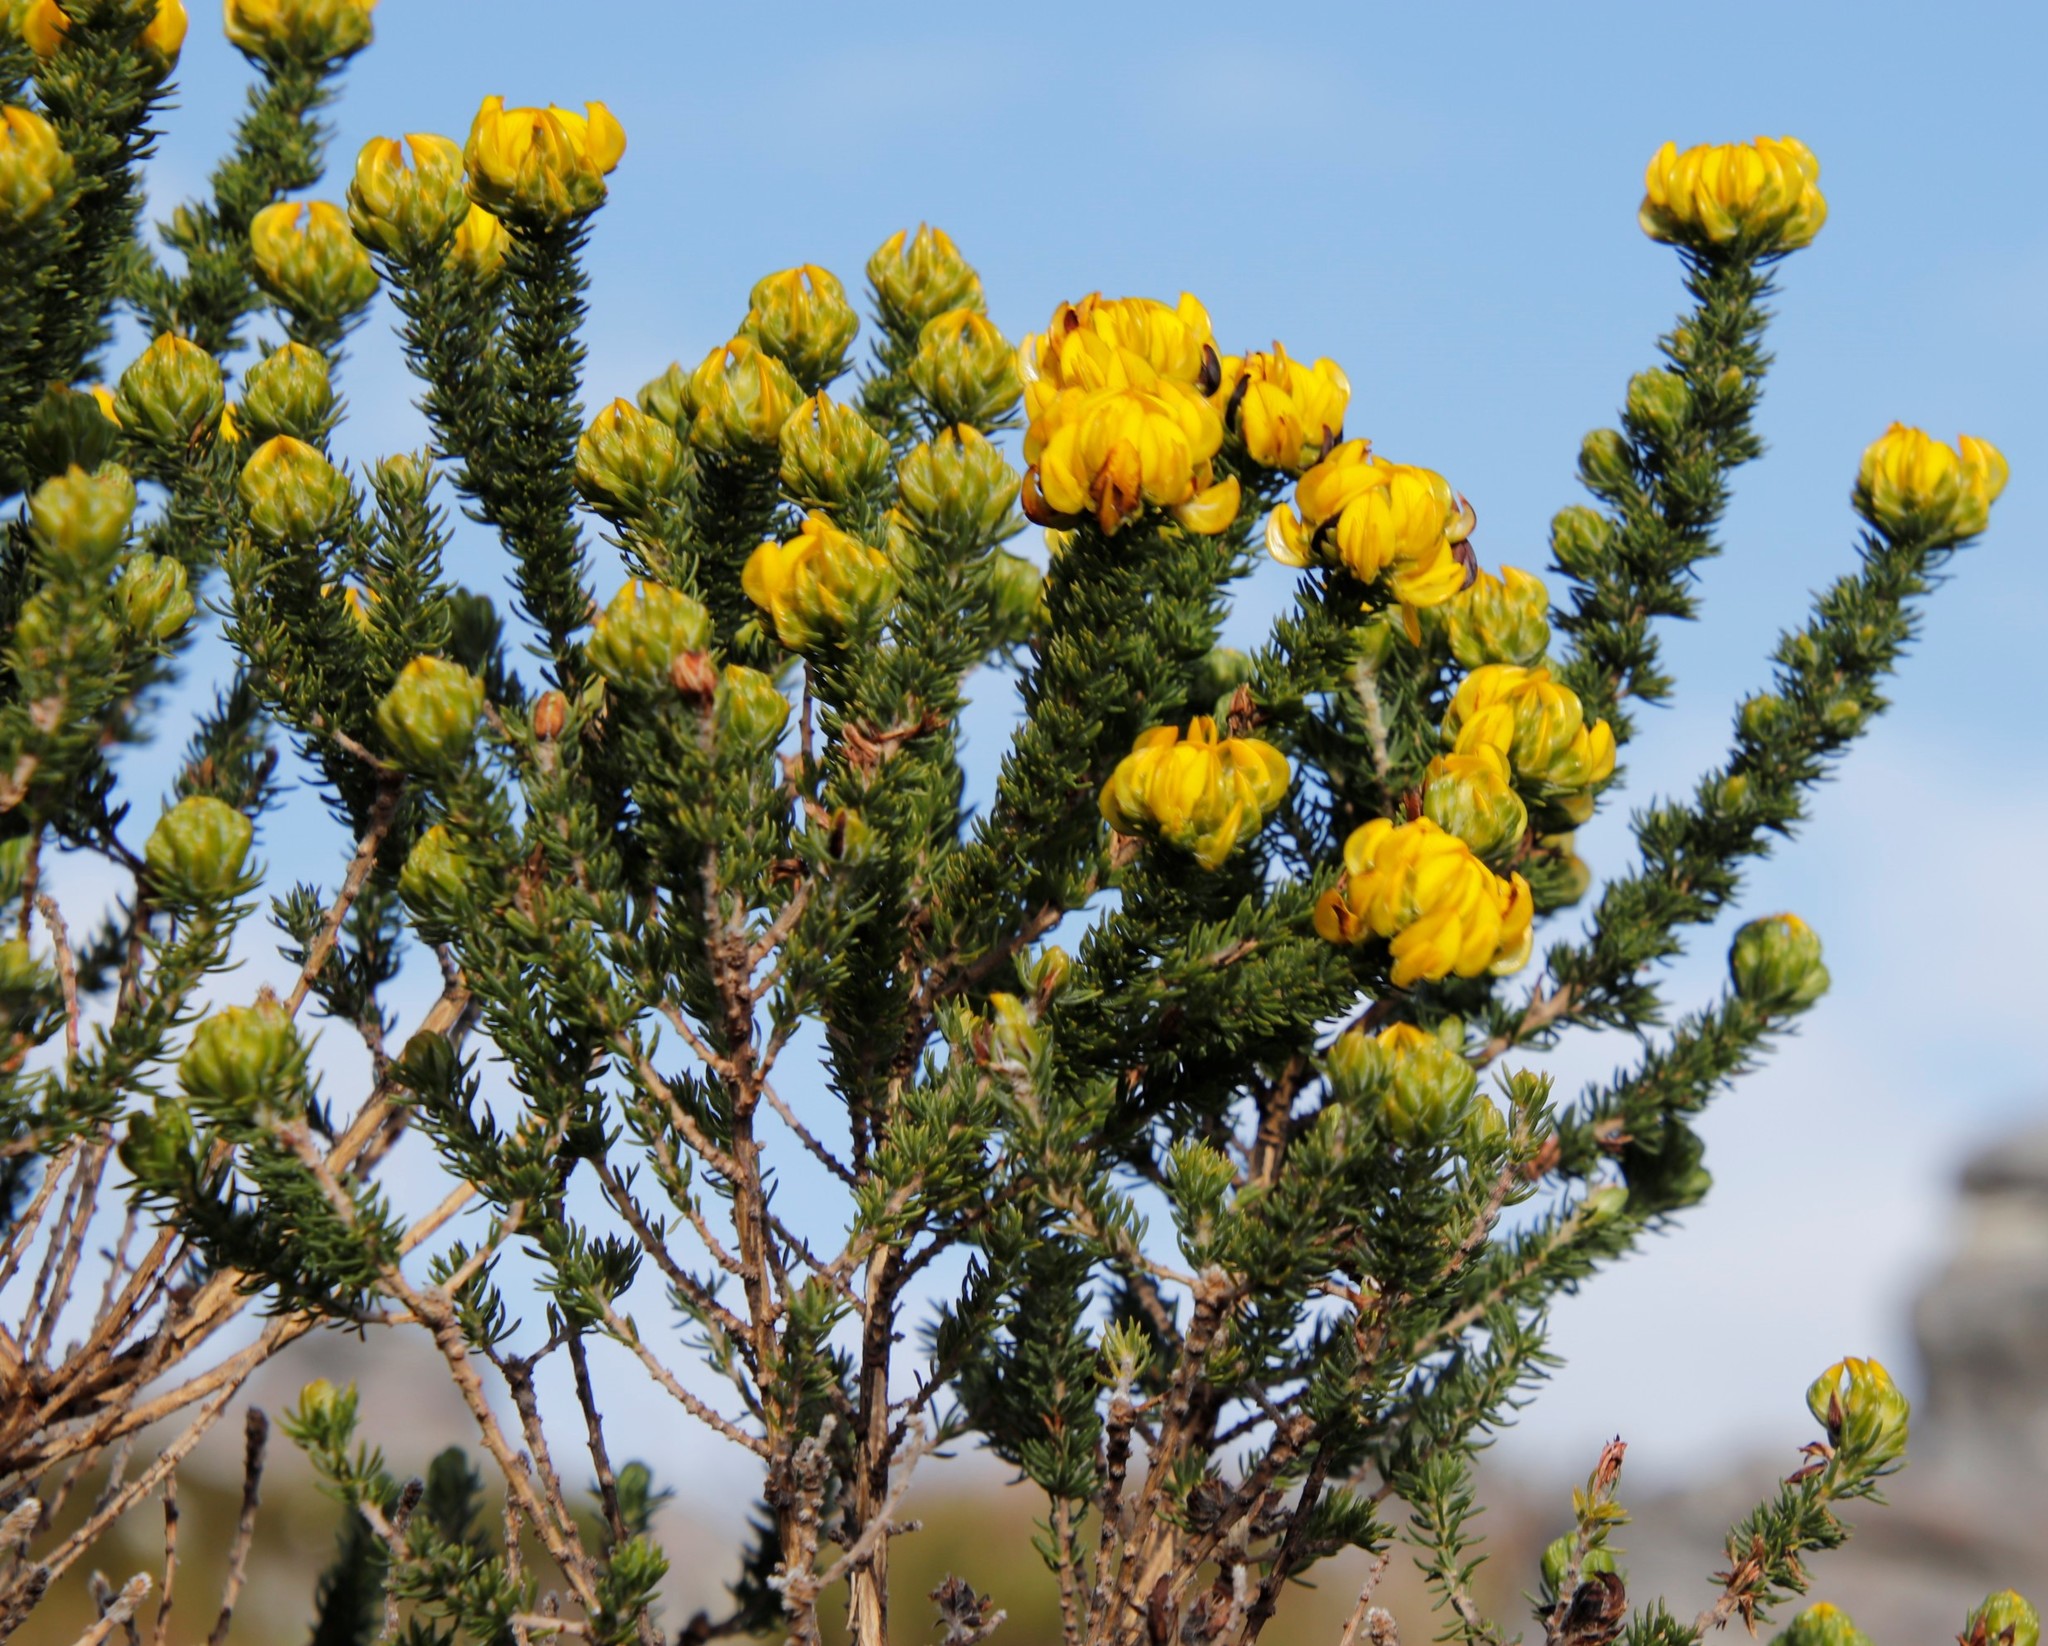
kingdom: Plantae
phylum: Tracheophyta
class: Magnoliopsida
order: Fabales
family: Fabaceae
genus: Aspalathus
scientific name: Aspalathus capitata
